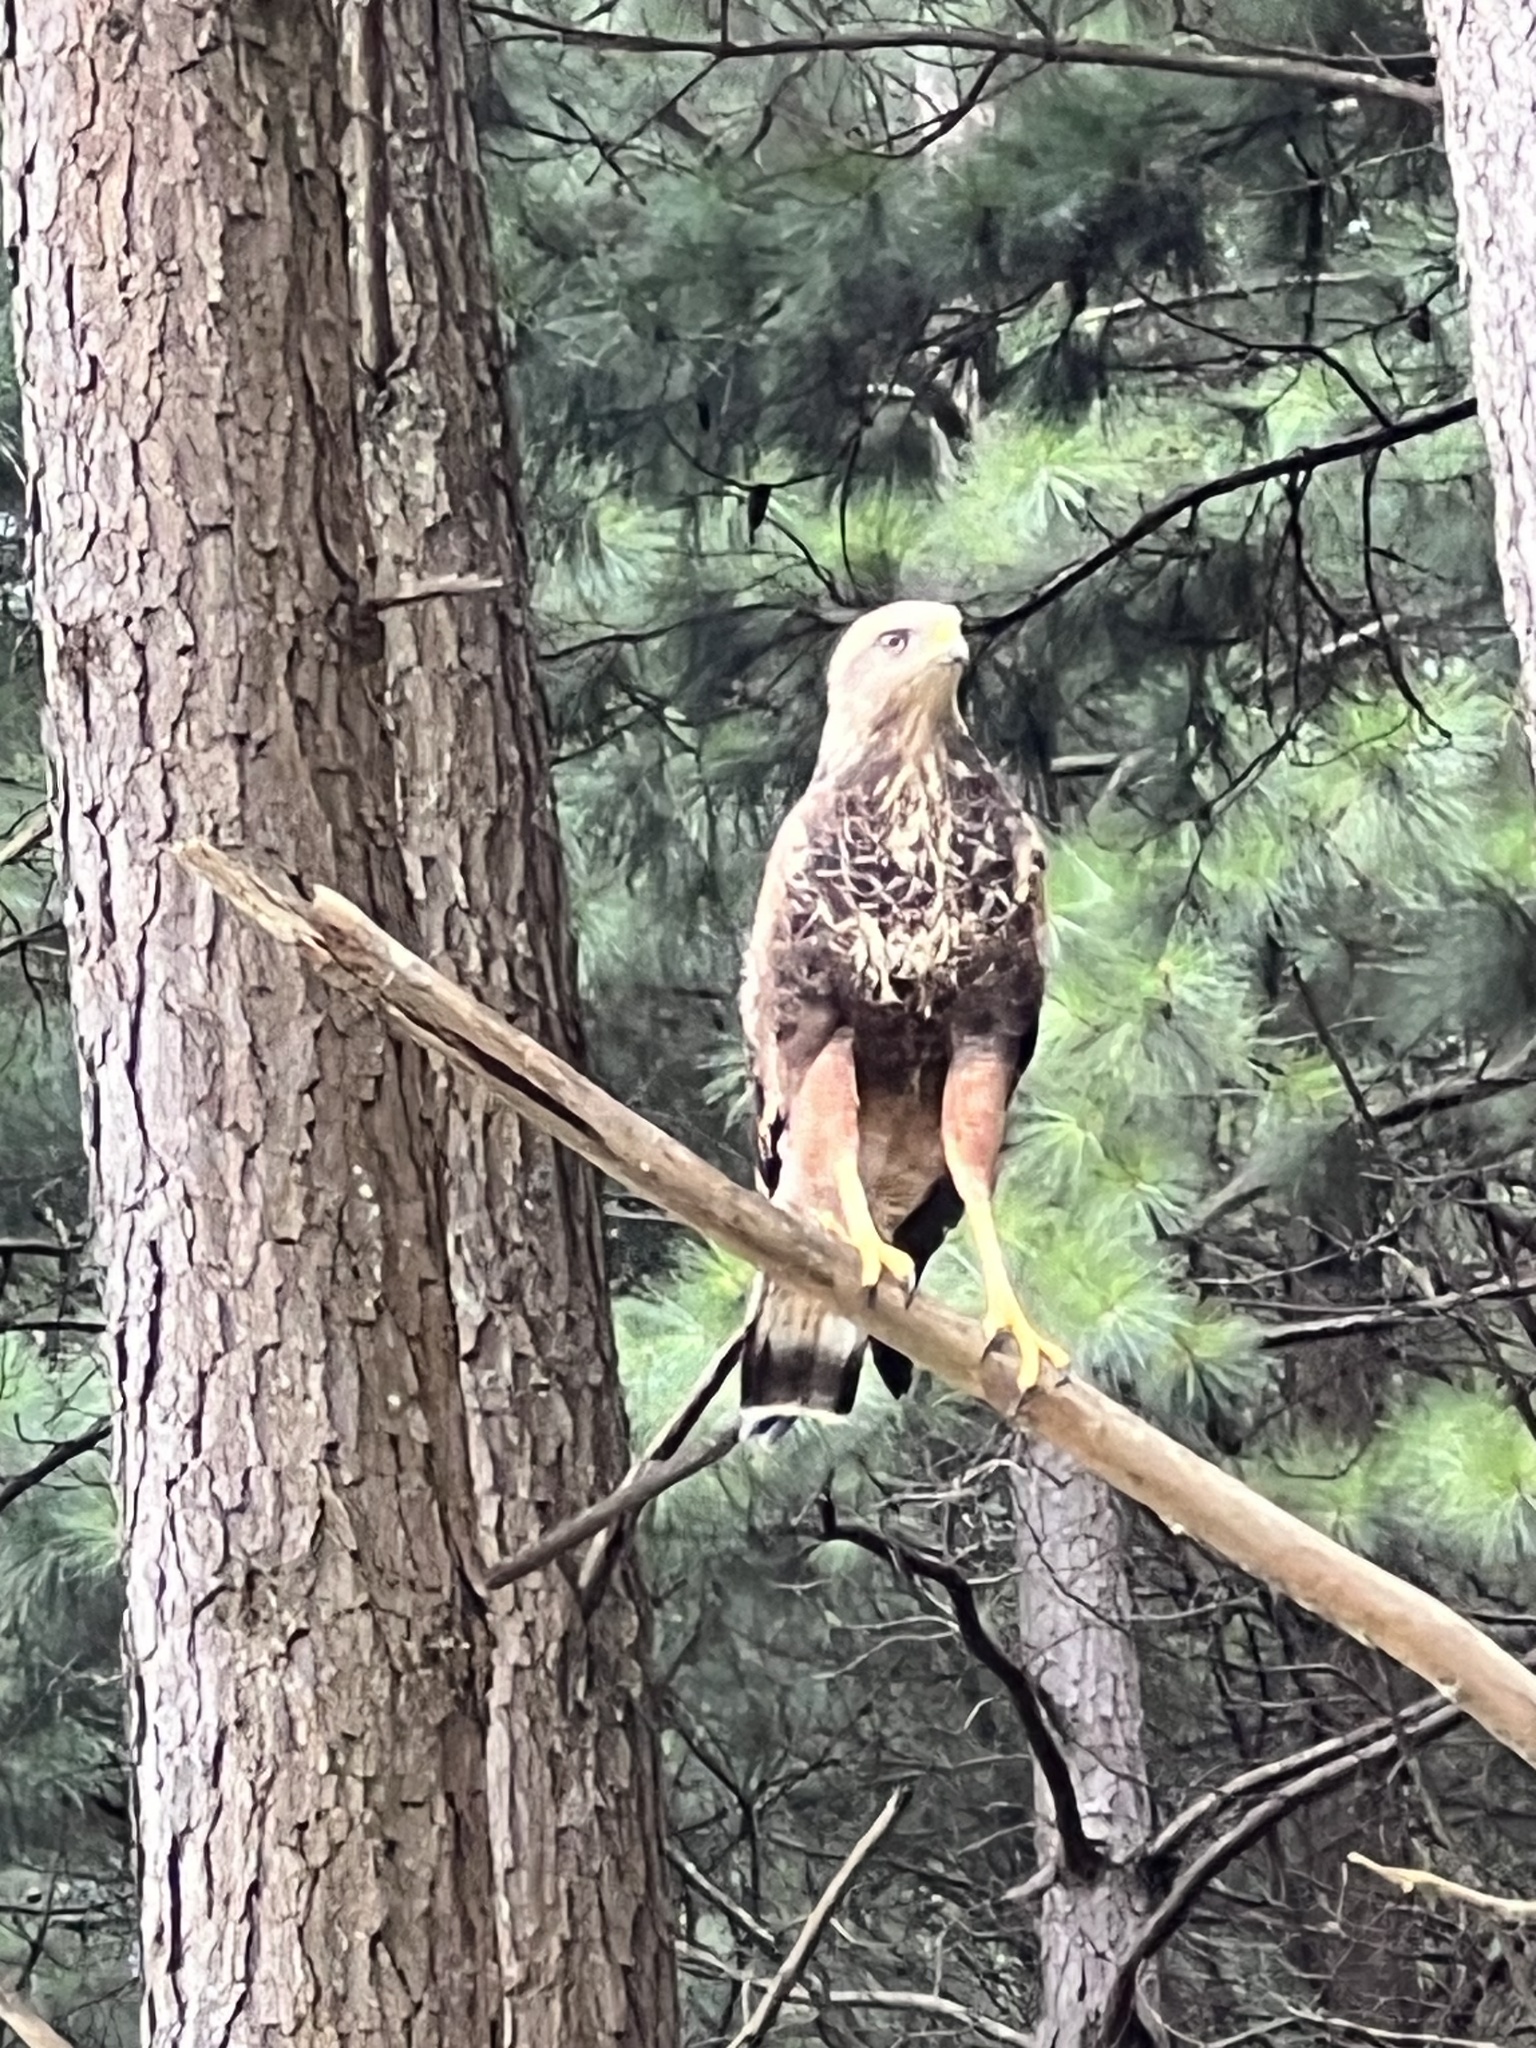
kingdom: Animalia
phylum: Chordata
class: Aves
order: Accipitriformes
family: Accipitridae
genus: Buteogallus
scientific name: Buteogallus meridionalis
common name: Savanna hawk
